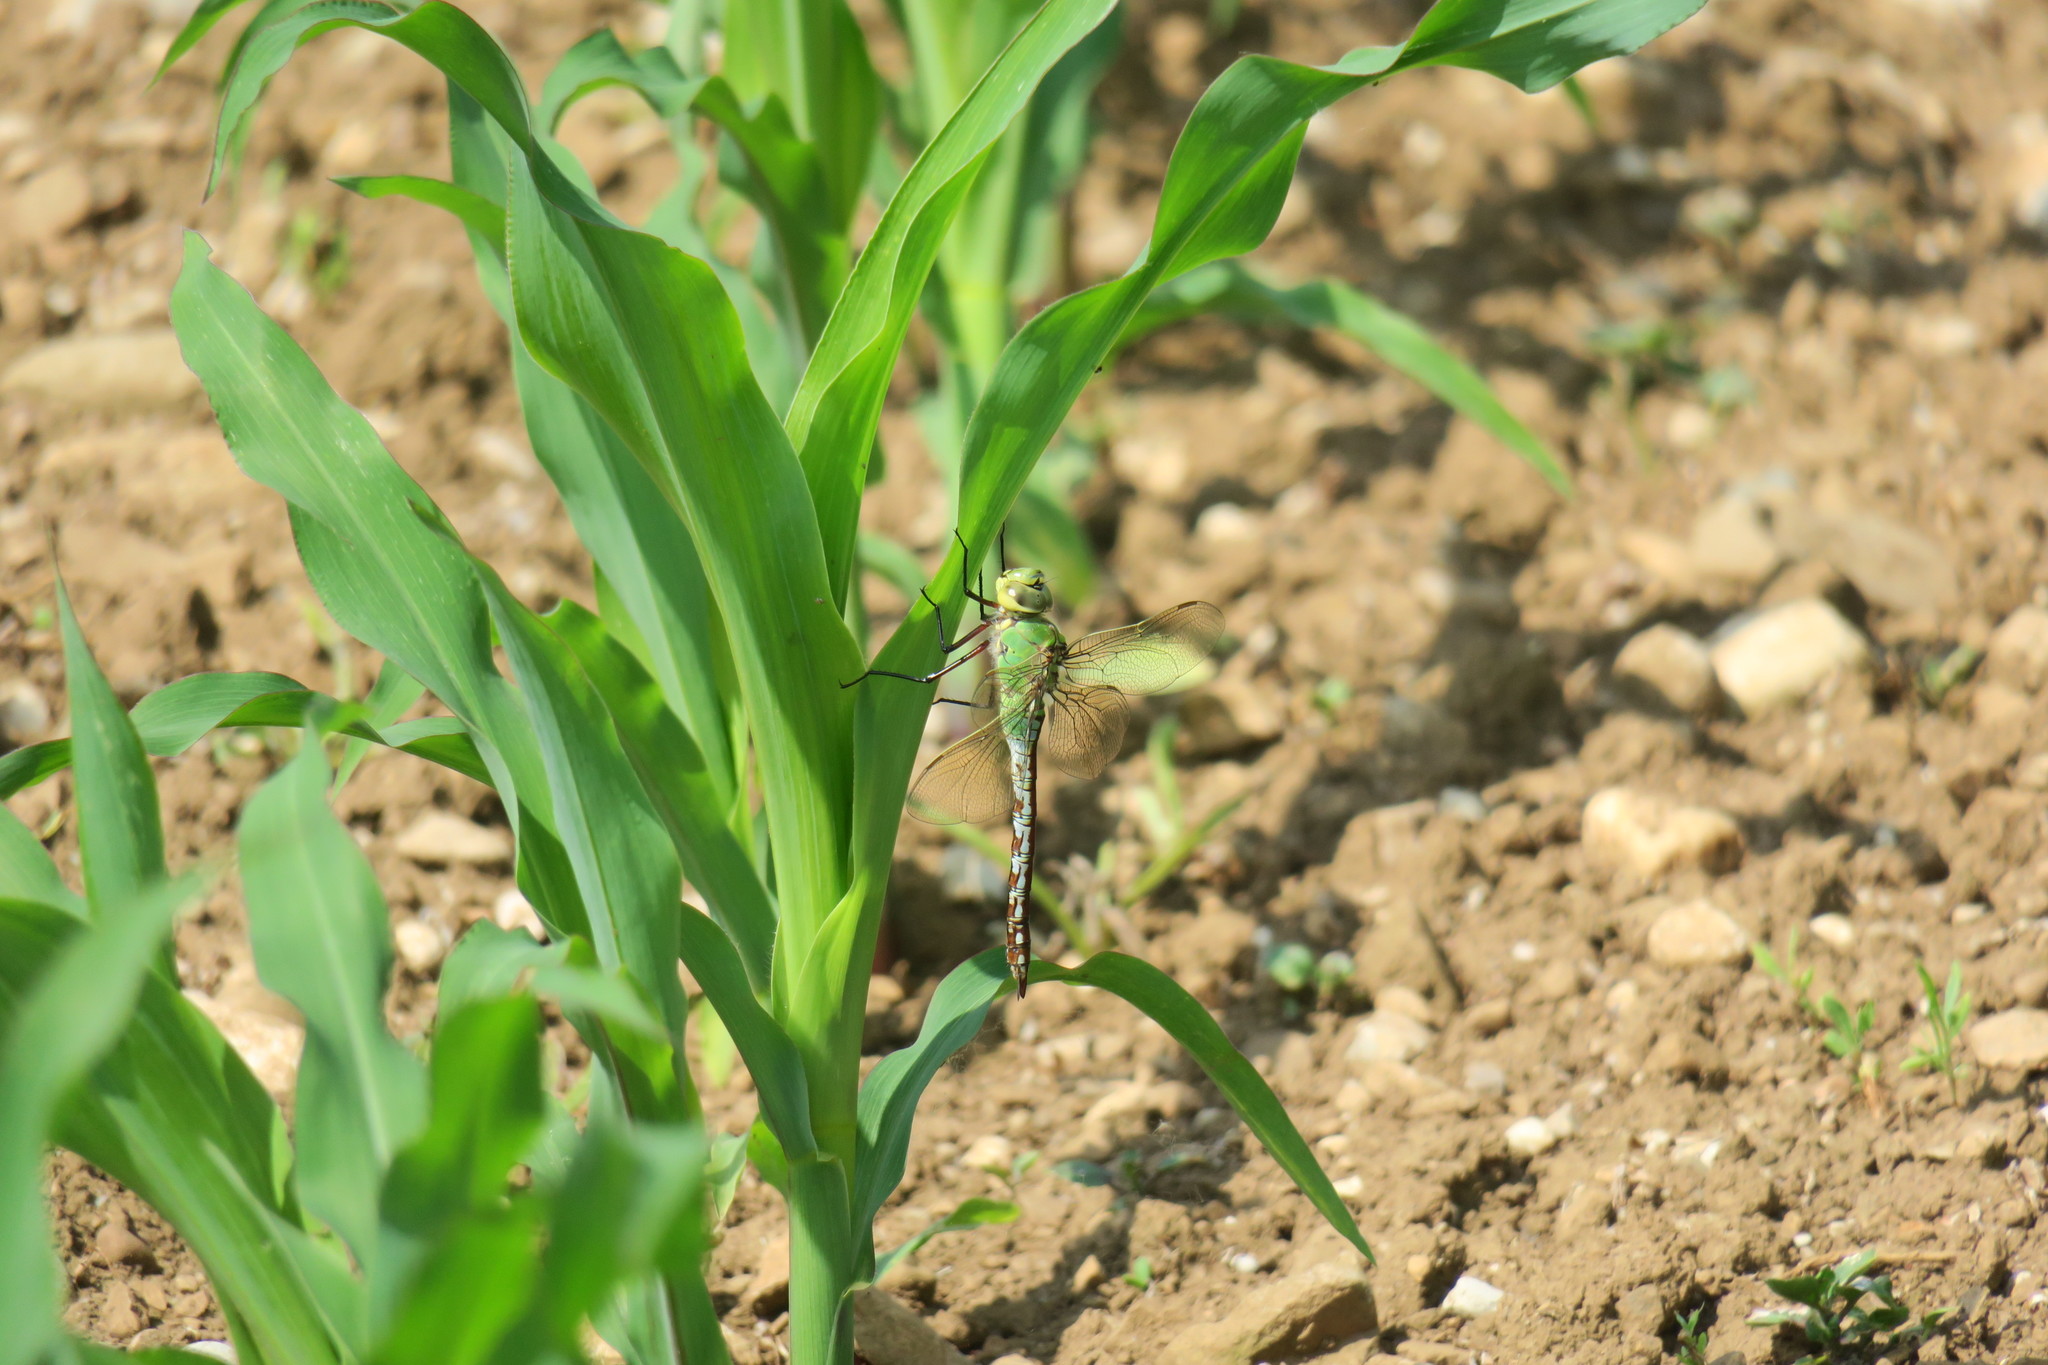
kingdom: Animalia
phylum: Arthropoda
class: Insecta
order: Odonata
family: Aeshnidae
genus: Anax
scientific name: Anax imperator
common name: Emperor dragonfly
